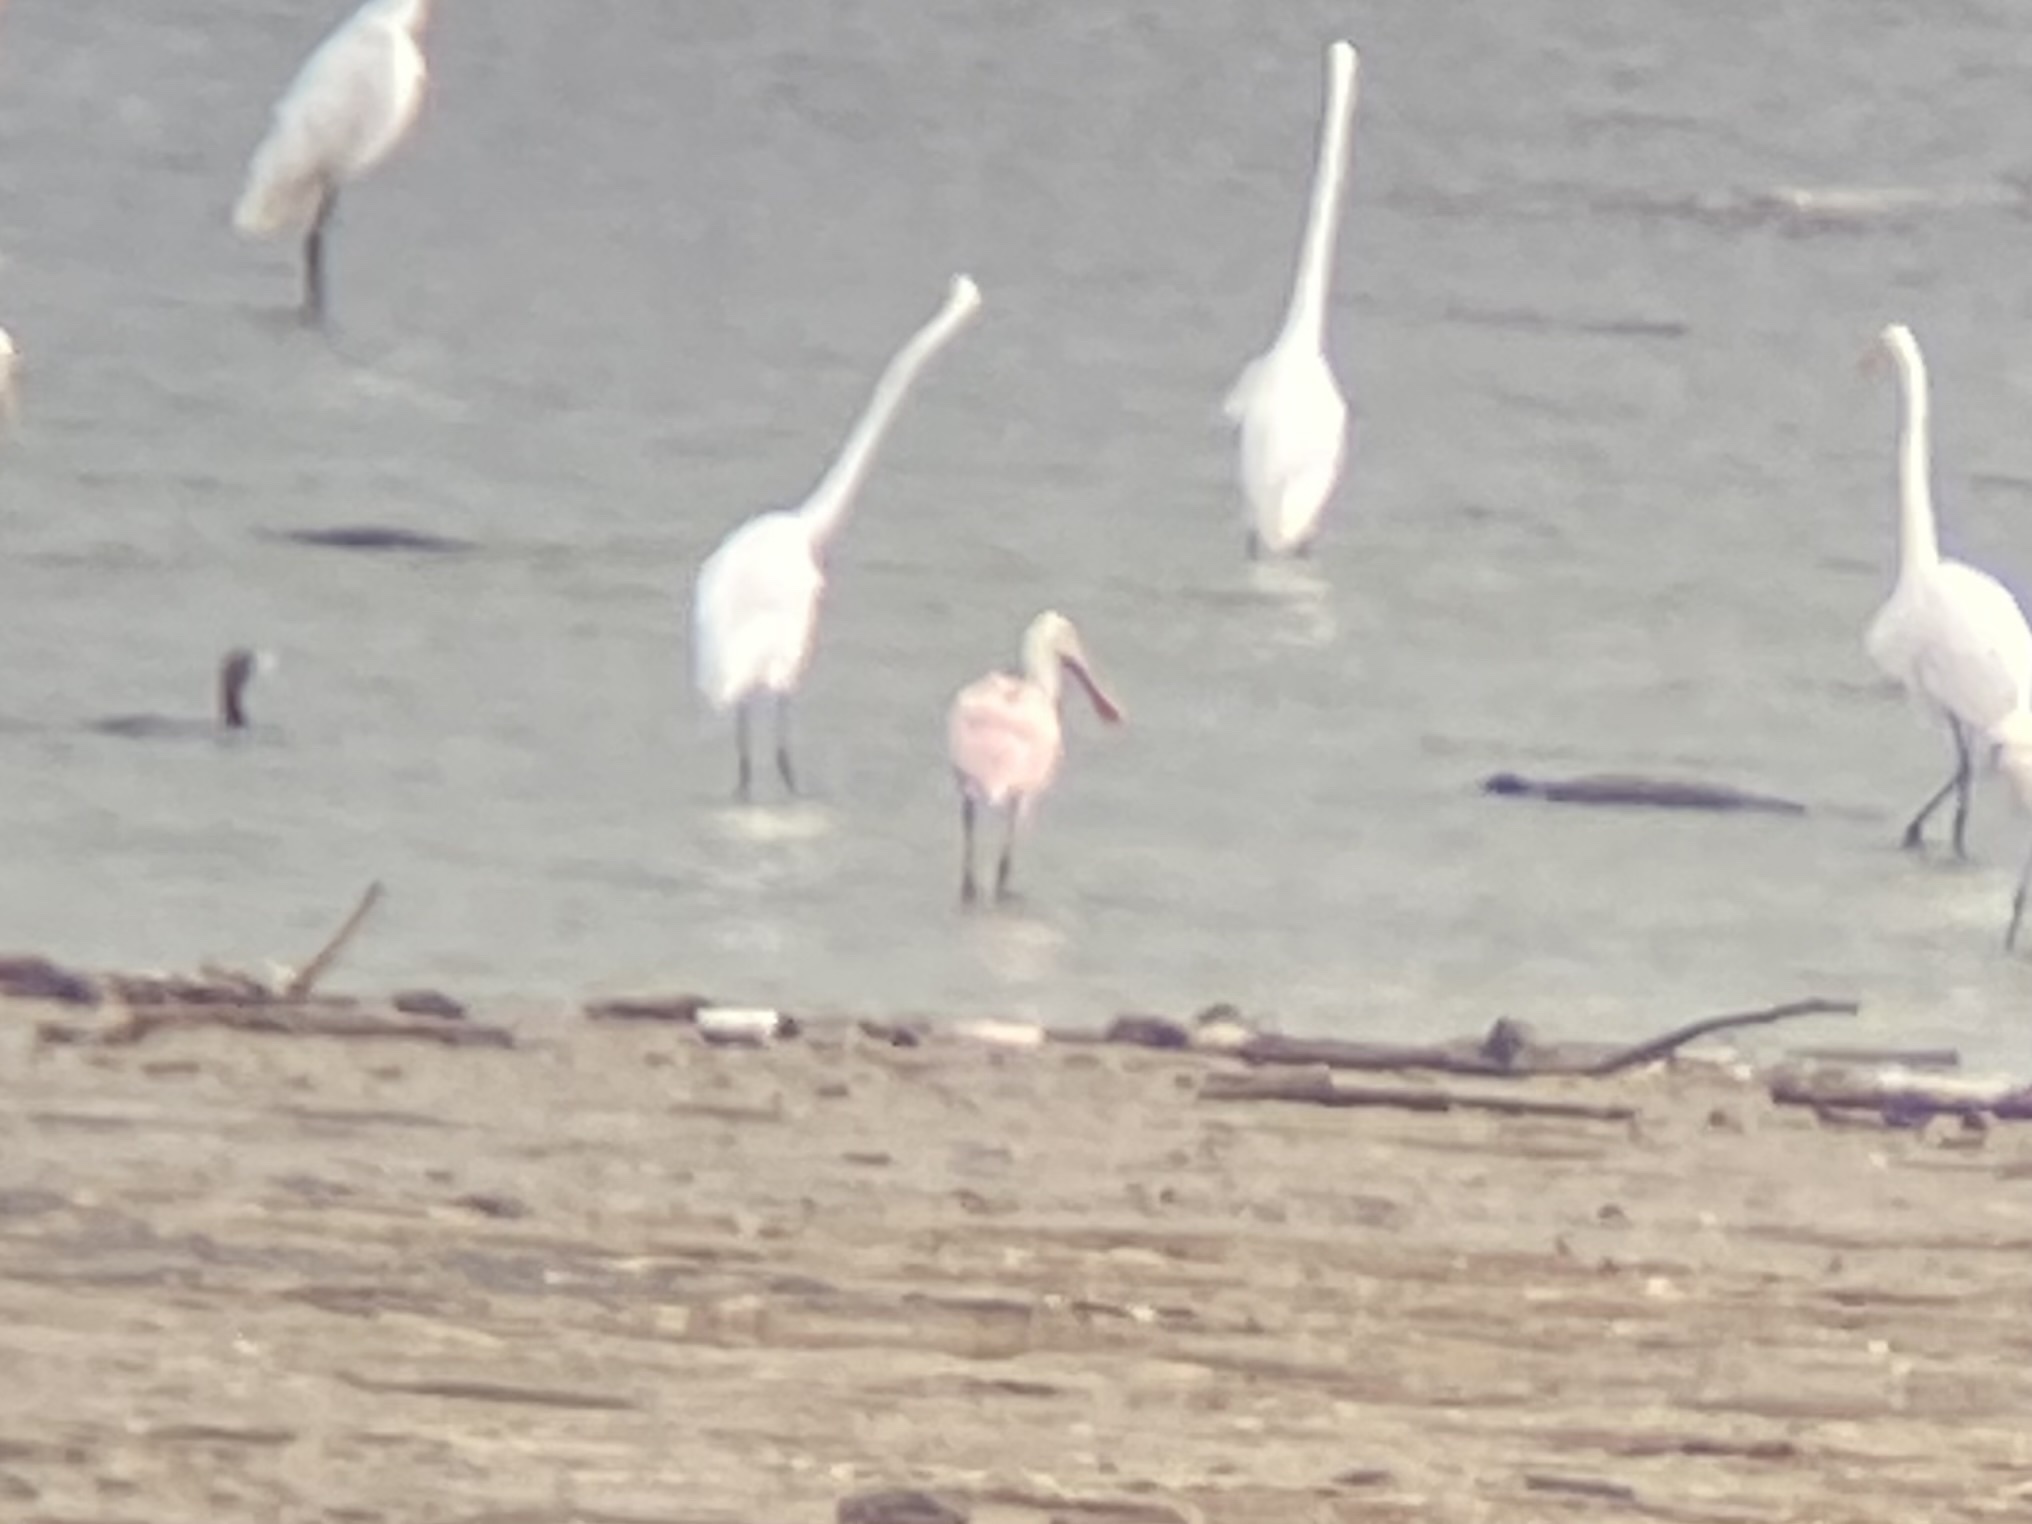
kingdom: Animalia
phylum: Chordata
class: Aves
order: Pelecaniformes
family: Threskiornithidae
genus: Platalea
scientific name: Platalea ajaja
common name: Roseate spoonbill
